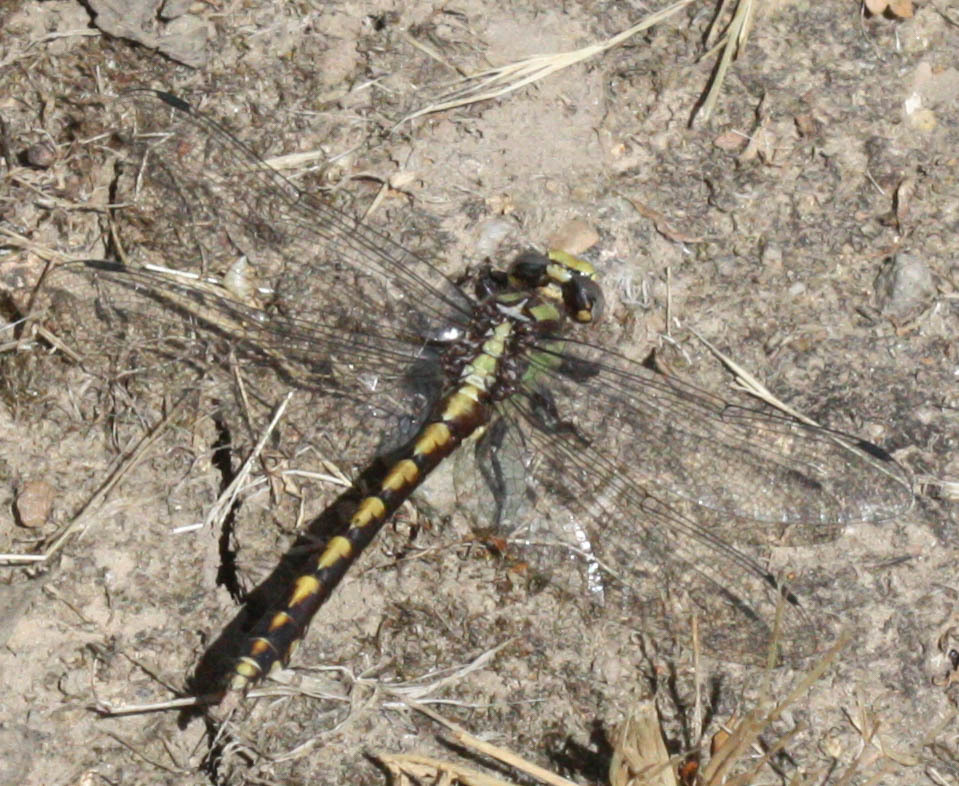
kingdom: Animalia
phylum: Arthropoda
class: Insecta
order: Odonata
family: Gomphidae
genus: Ophiogomphus
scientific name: Ophiogomphus bison
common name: Bison snaketail
